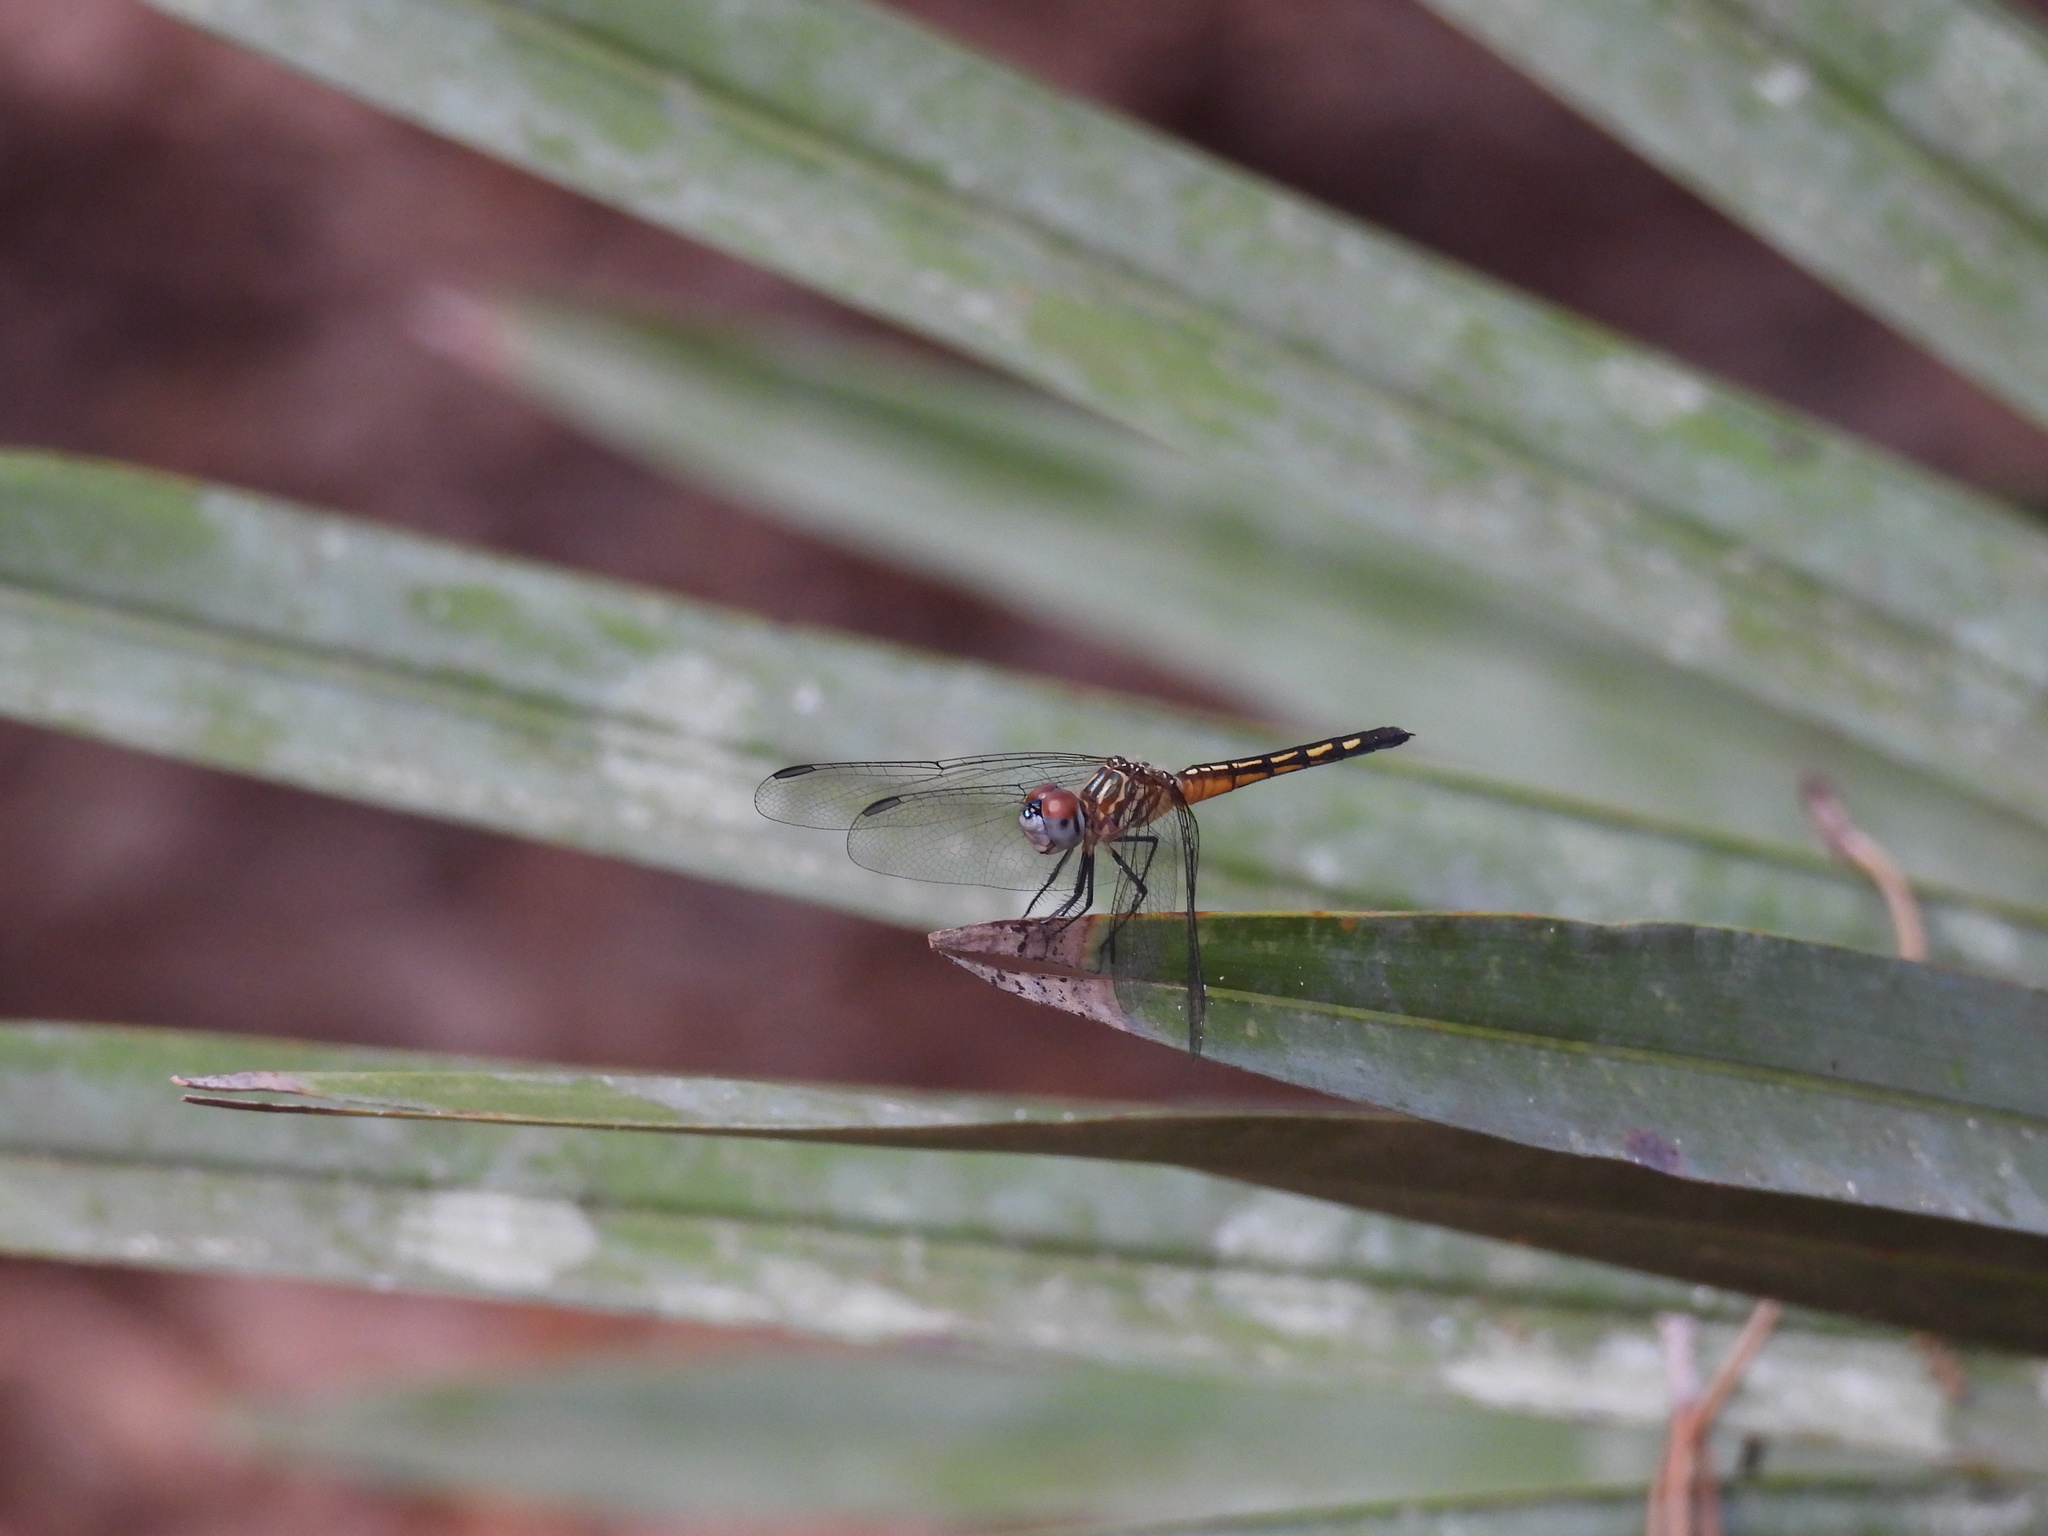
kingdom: Animalia
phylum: Arthropoda
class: Insecta
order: Odonata
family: Libellulidae
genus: Pachydiplax
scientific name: Pachydiplax longipennis
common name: Blue dasher
